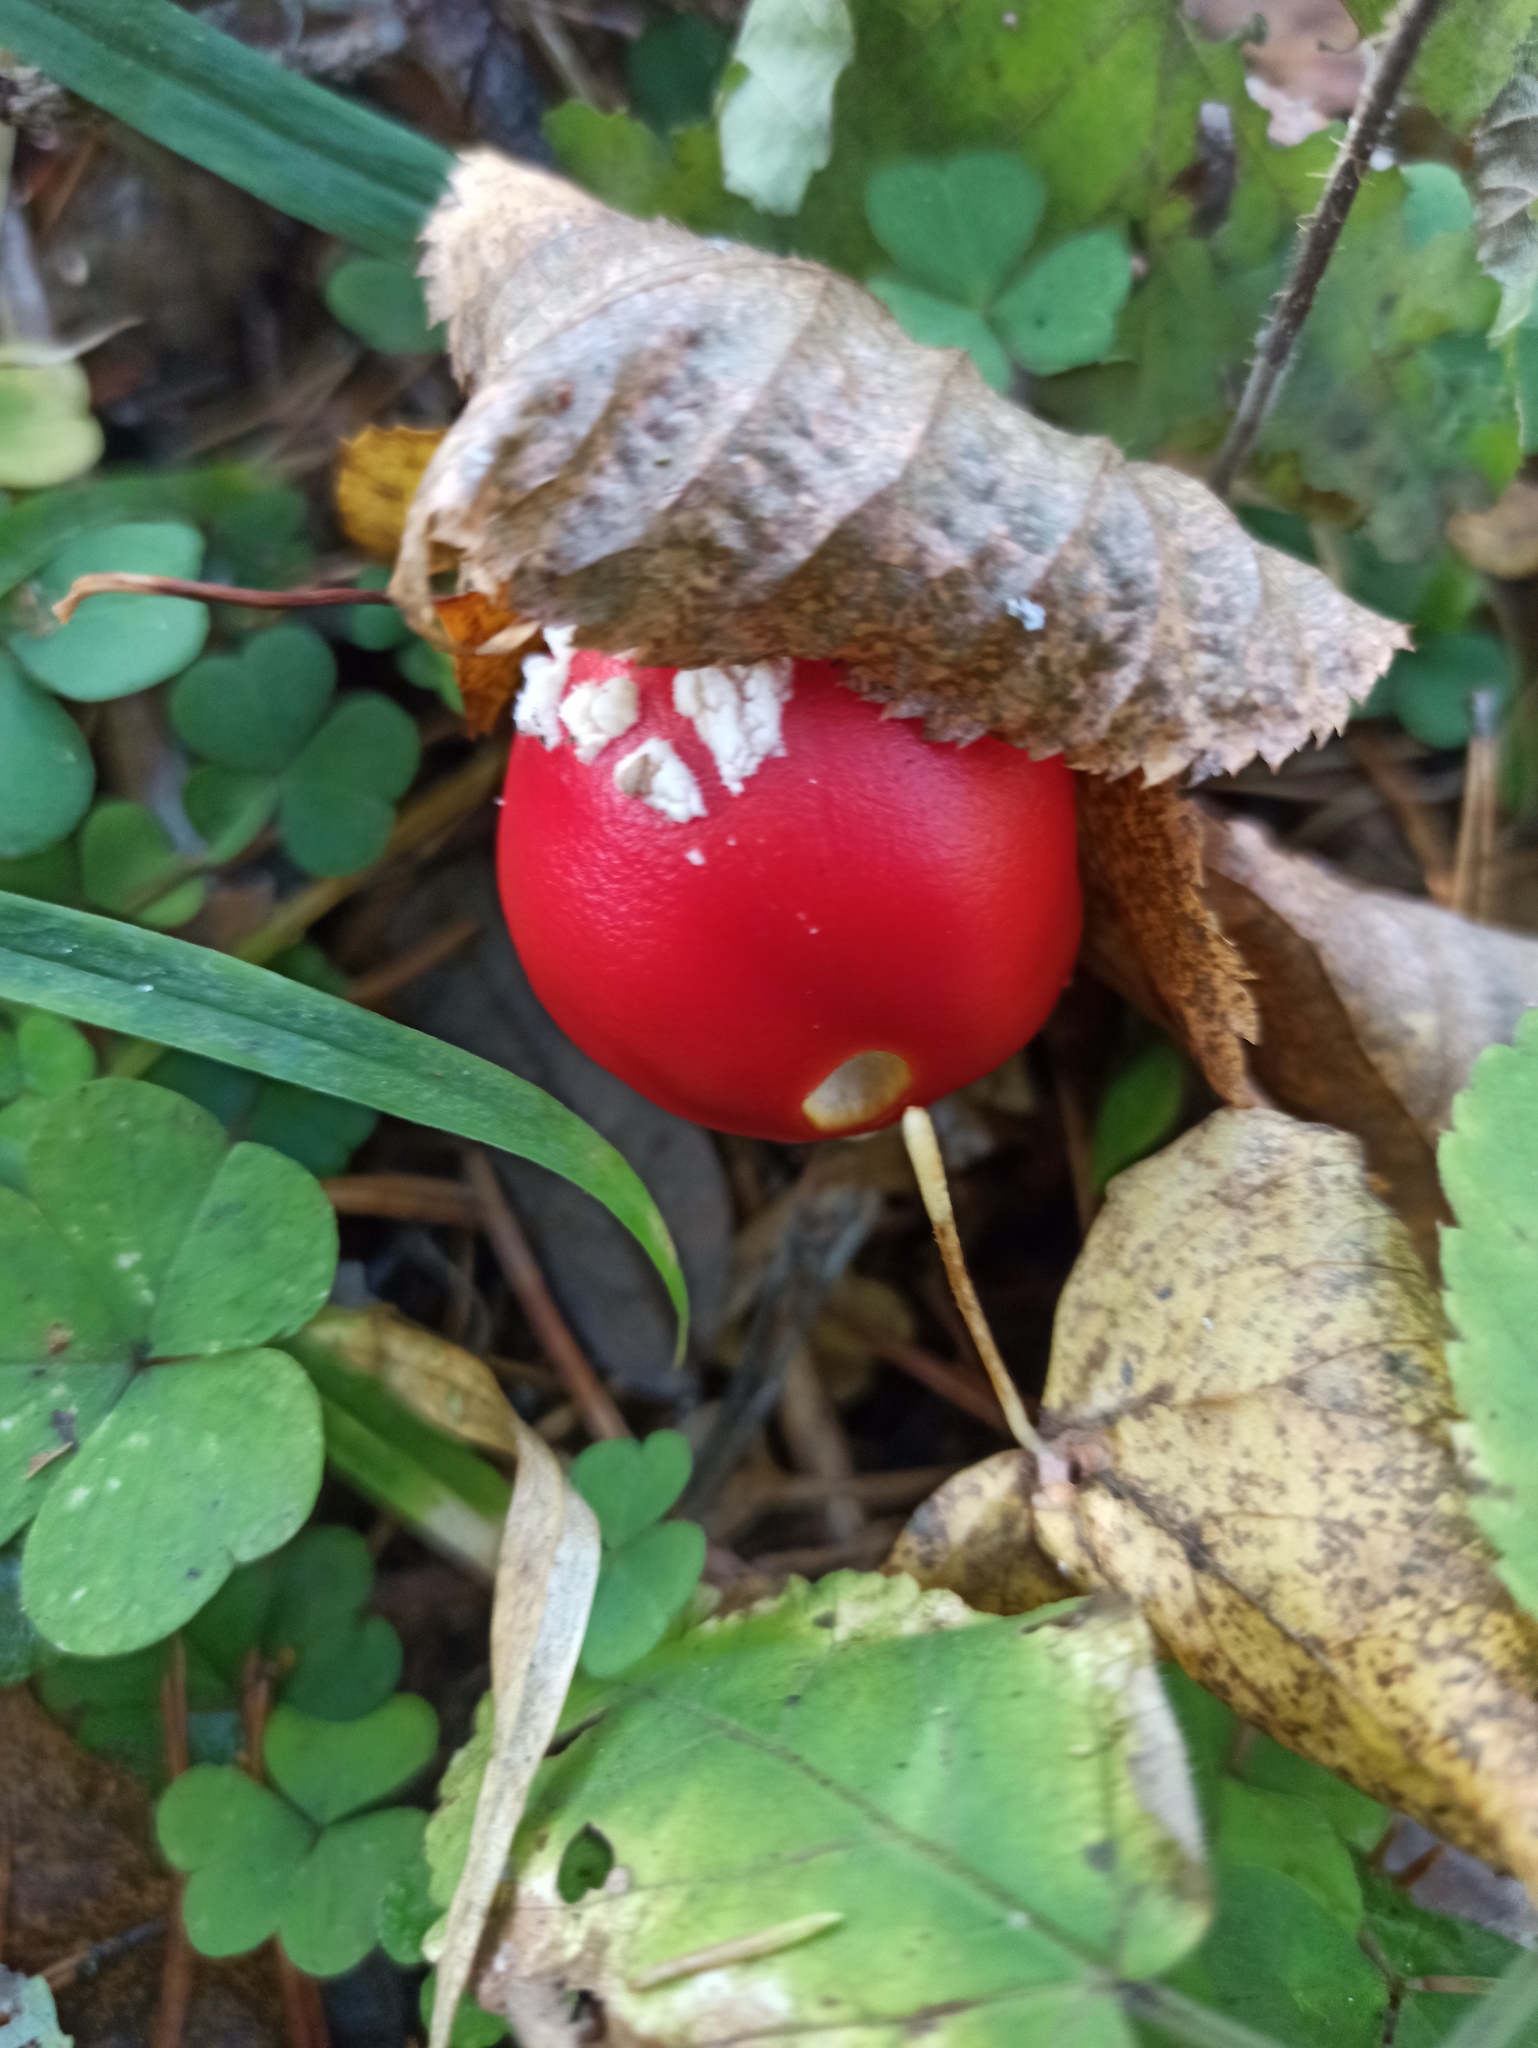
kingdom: Fungi
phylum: Basidiomycota
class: Agaricomycetes
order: Agaricales
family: Amanitaceae
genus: Amanita
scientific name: Amanita muscaria
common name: Fly agaric
